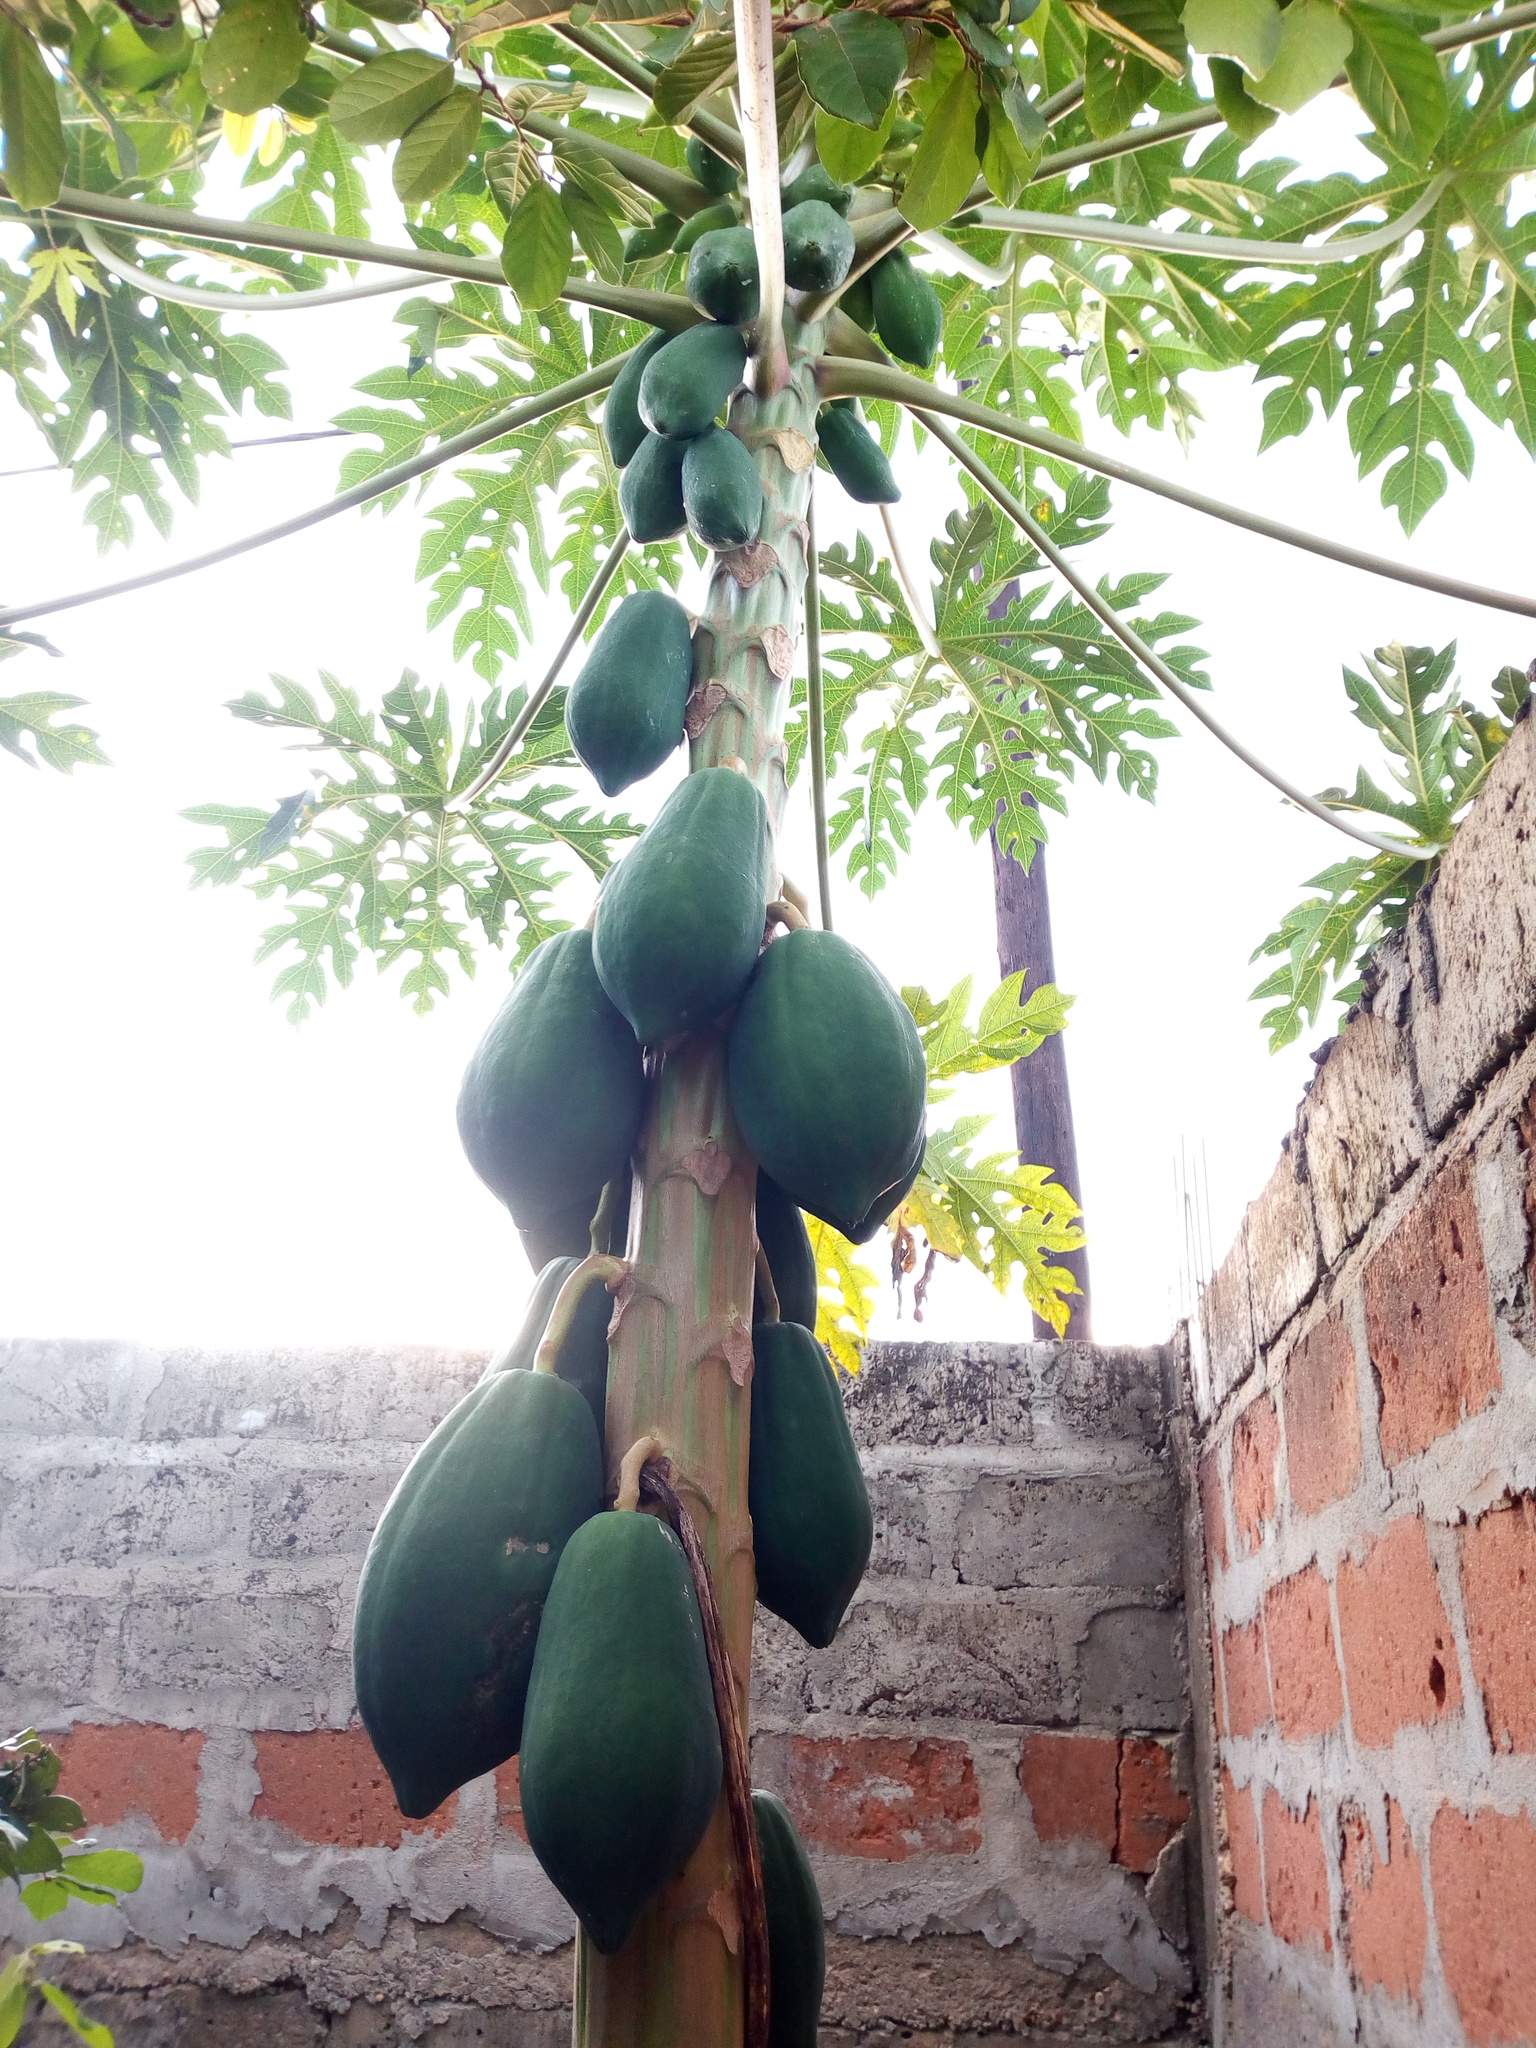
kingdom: Plantae
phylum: Tracheophyta
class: Magnoliopsida
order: Brassicales
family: Caricaceae
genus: Carica
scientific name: Carica papaya
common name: Papaya
